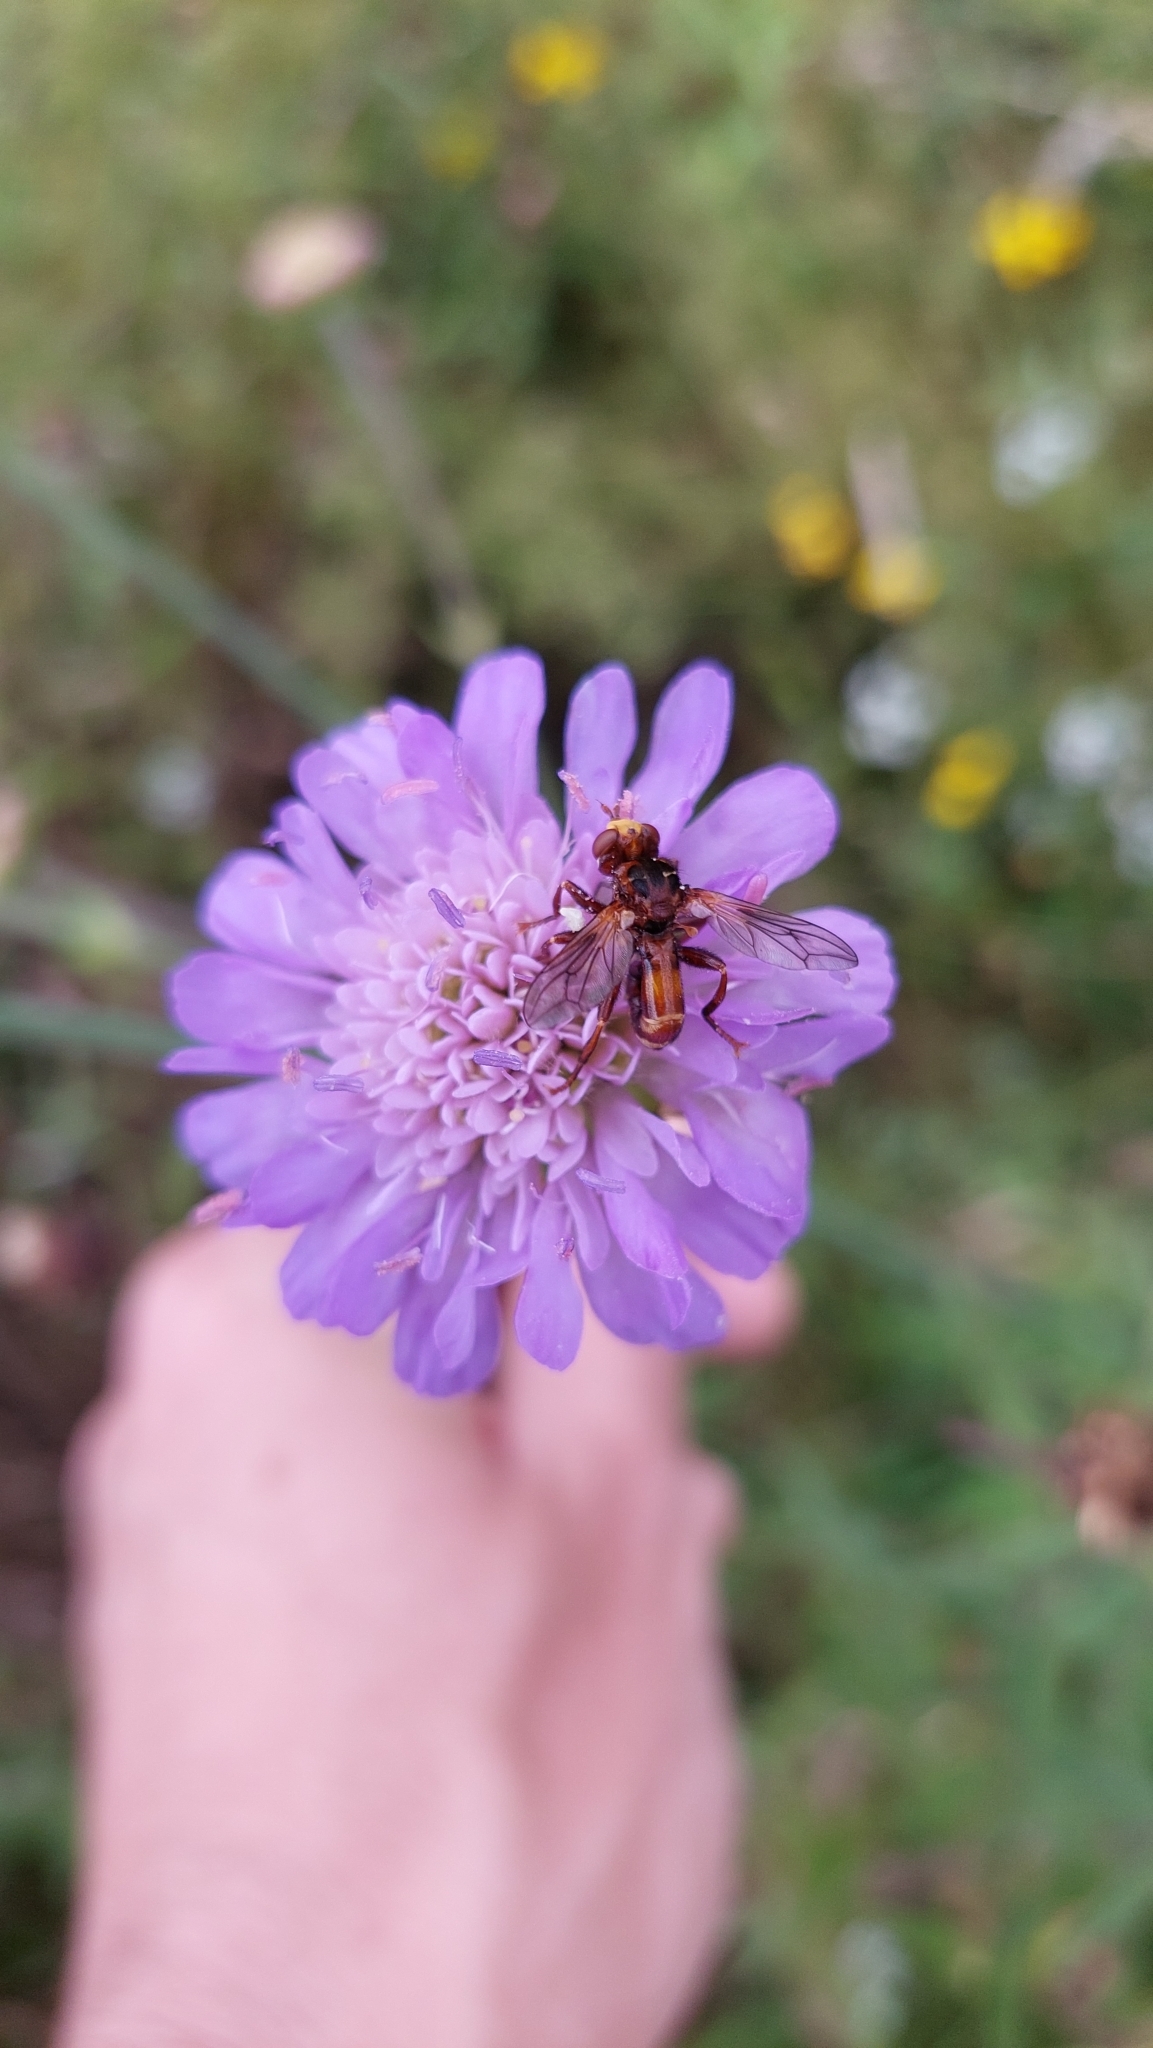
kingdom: Animalia
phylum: Arthropoda
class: Insecta
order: Diptera
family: Conopidae
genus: Sicus
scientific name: Sicus ferrugineus
